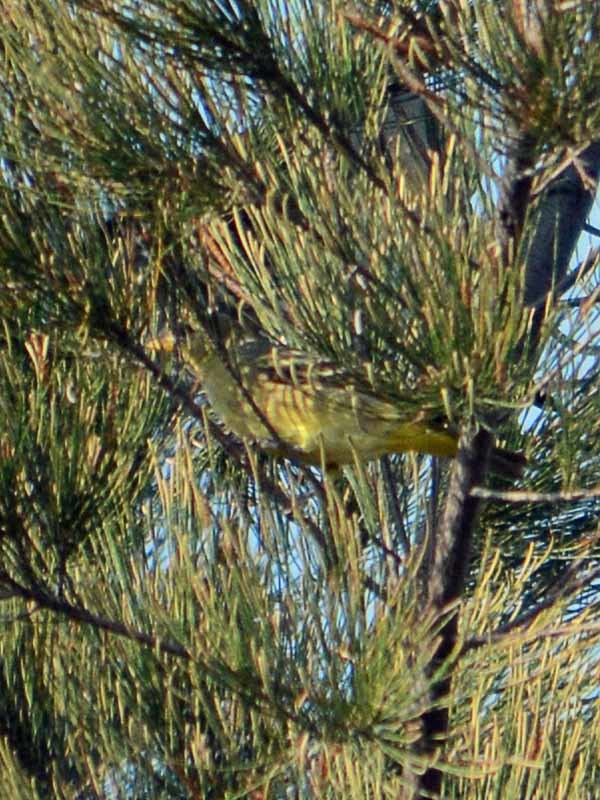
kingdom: Animalia
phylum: Chordata
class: Aves
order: Passeriformes
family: Cardinalidae
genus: Piranga
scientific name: Piranga ludoviciana
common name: Western tanager
